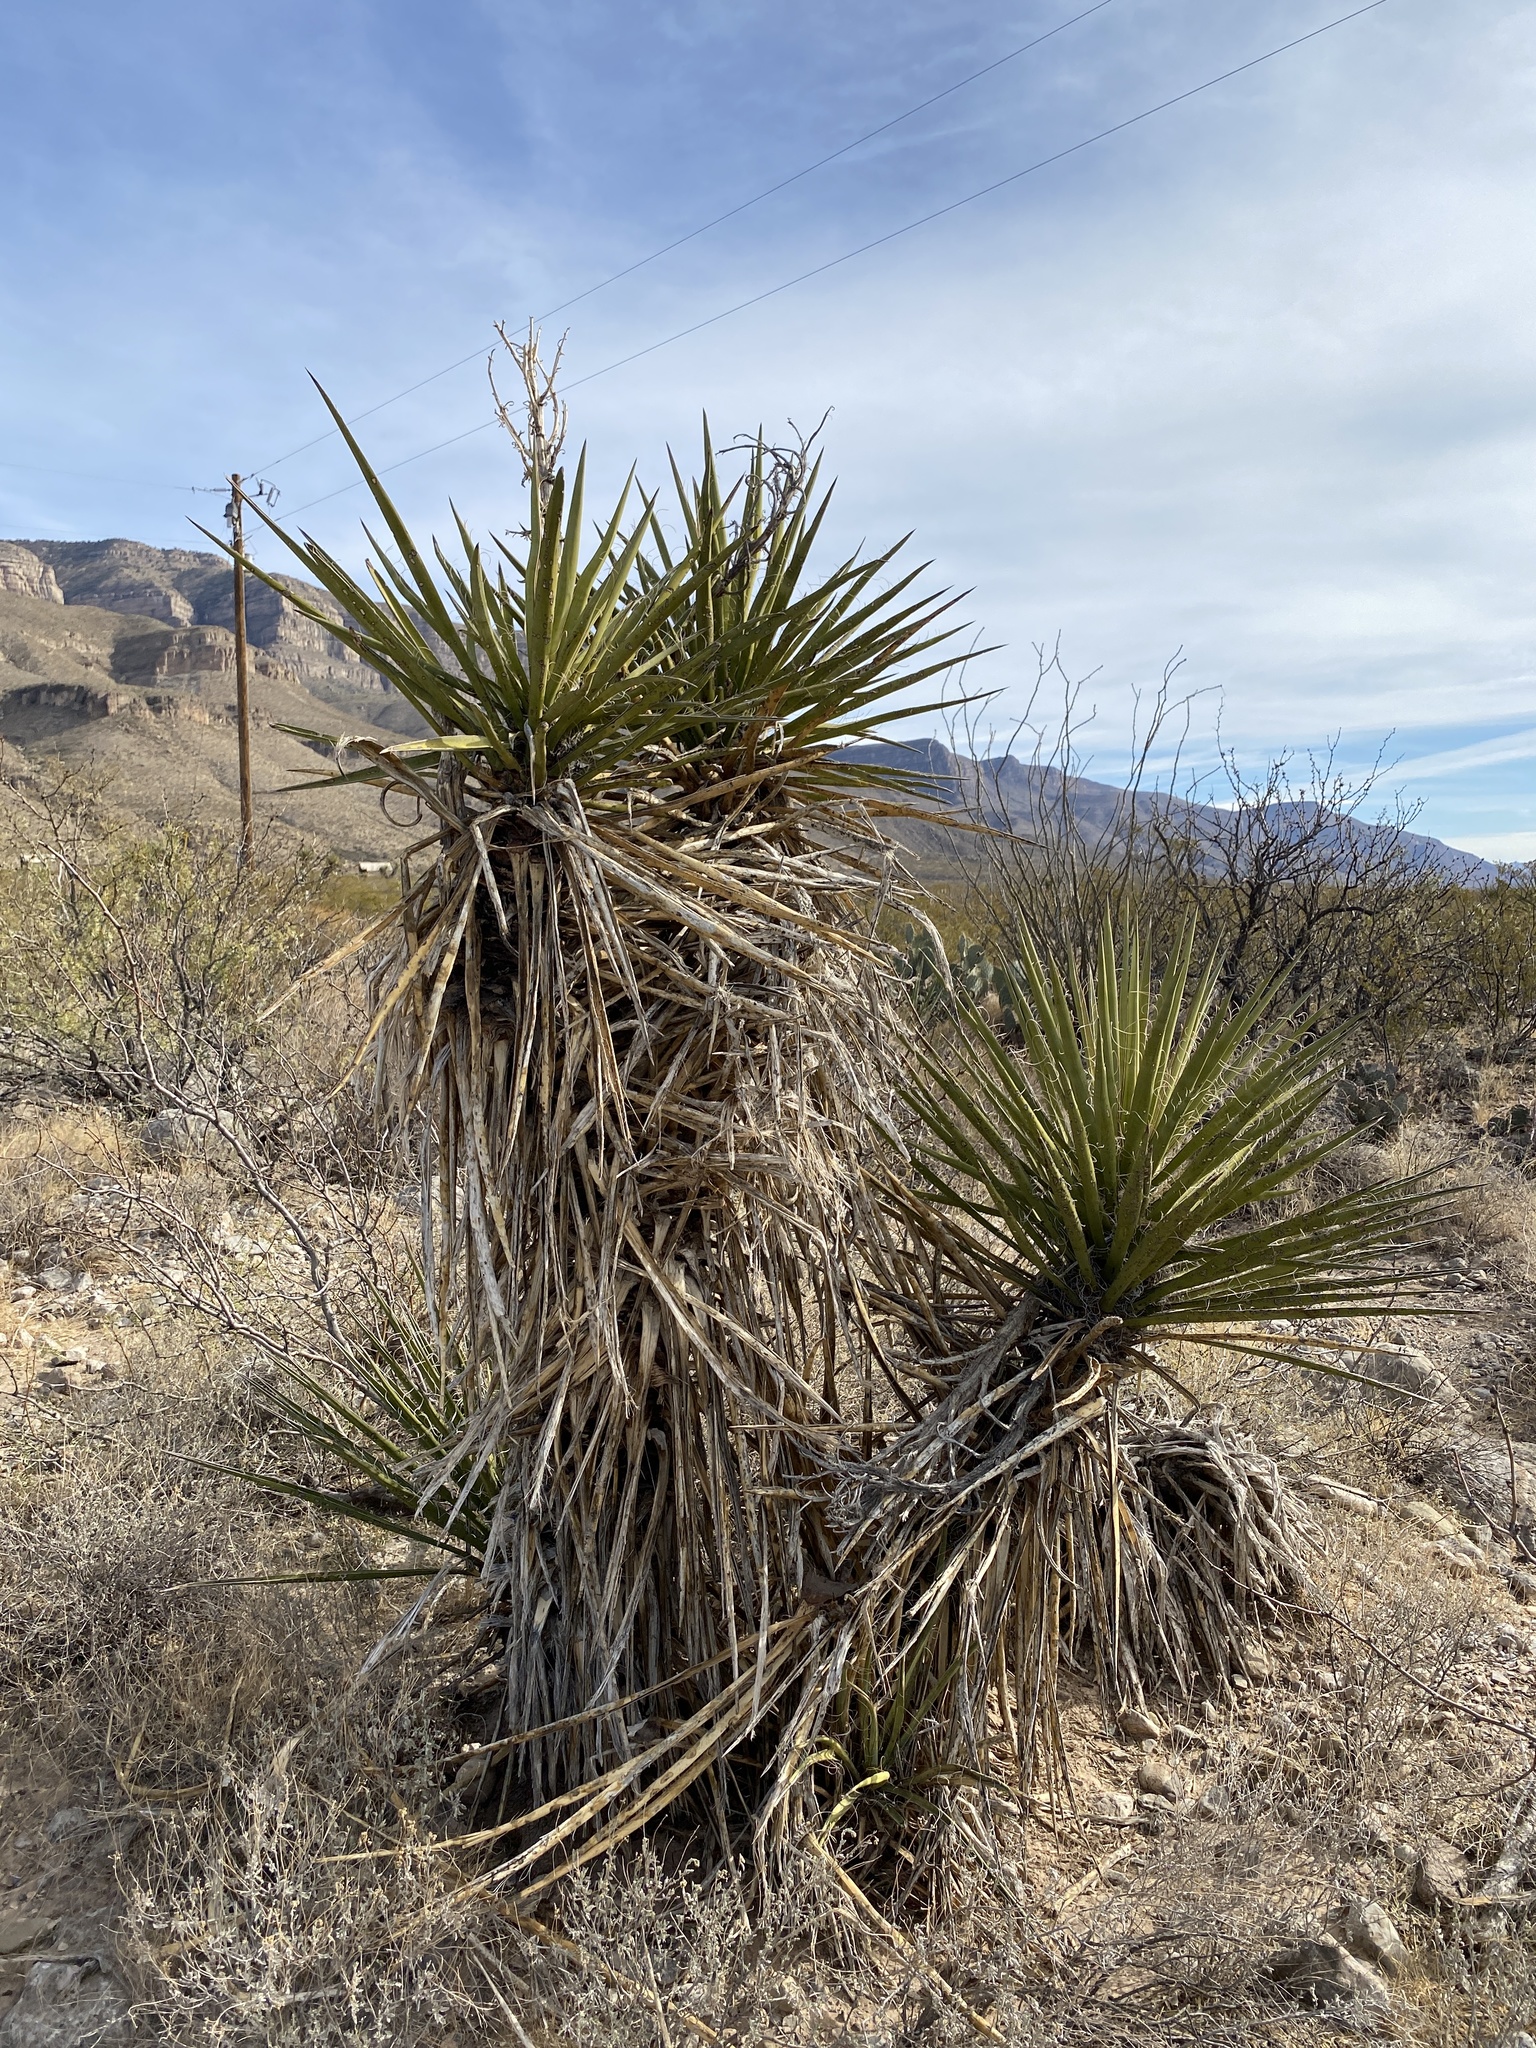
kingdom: Plantae
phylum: Tracheophyta
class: Liliopsida
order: Asparagales
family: Asparagaceae
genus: Yucca
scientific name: Yucca treculiana
